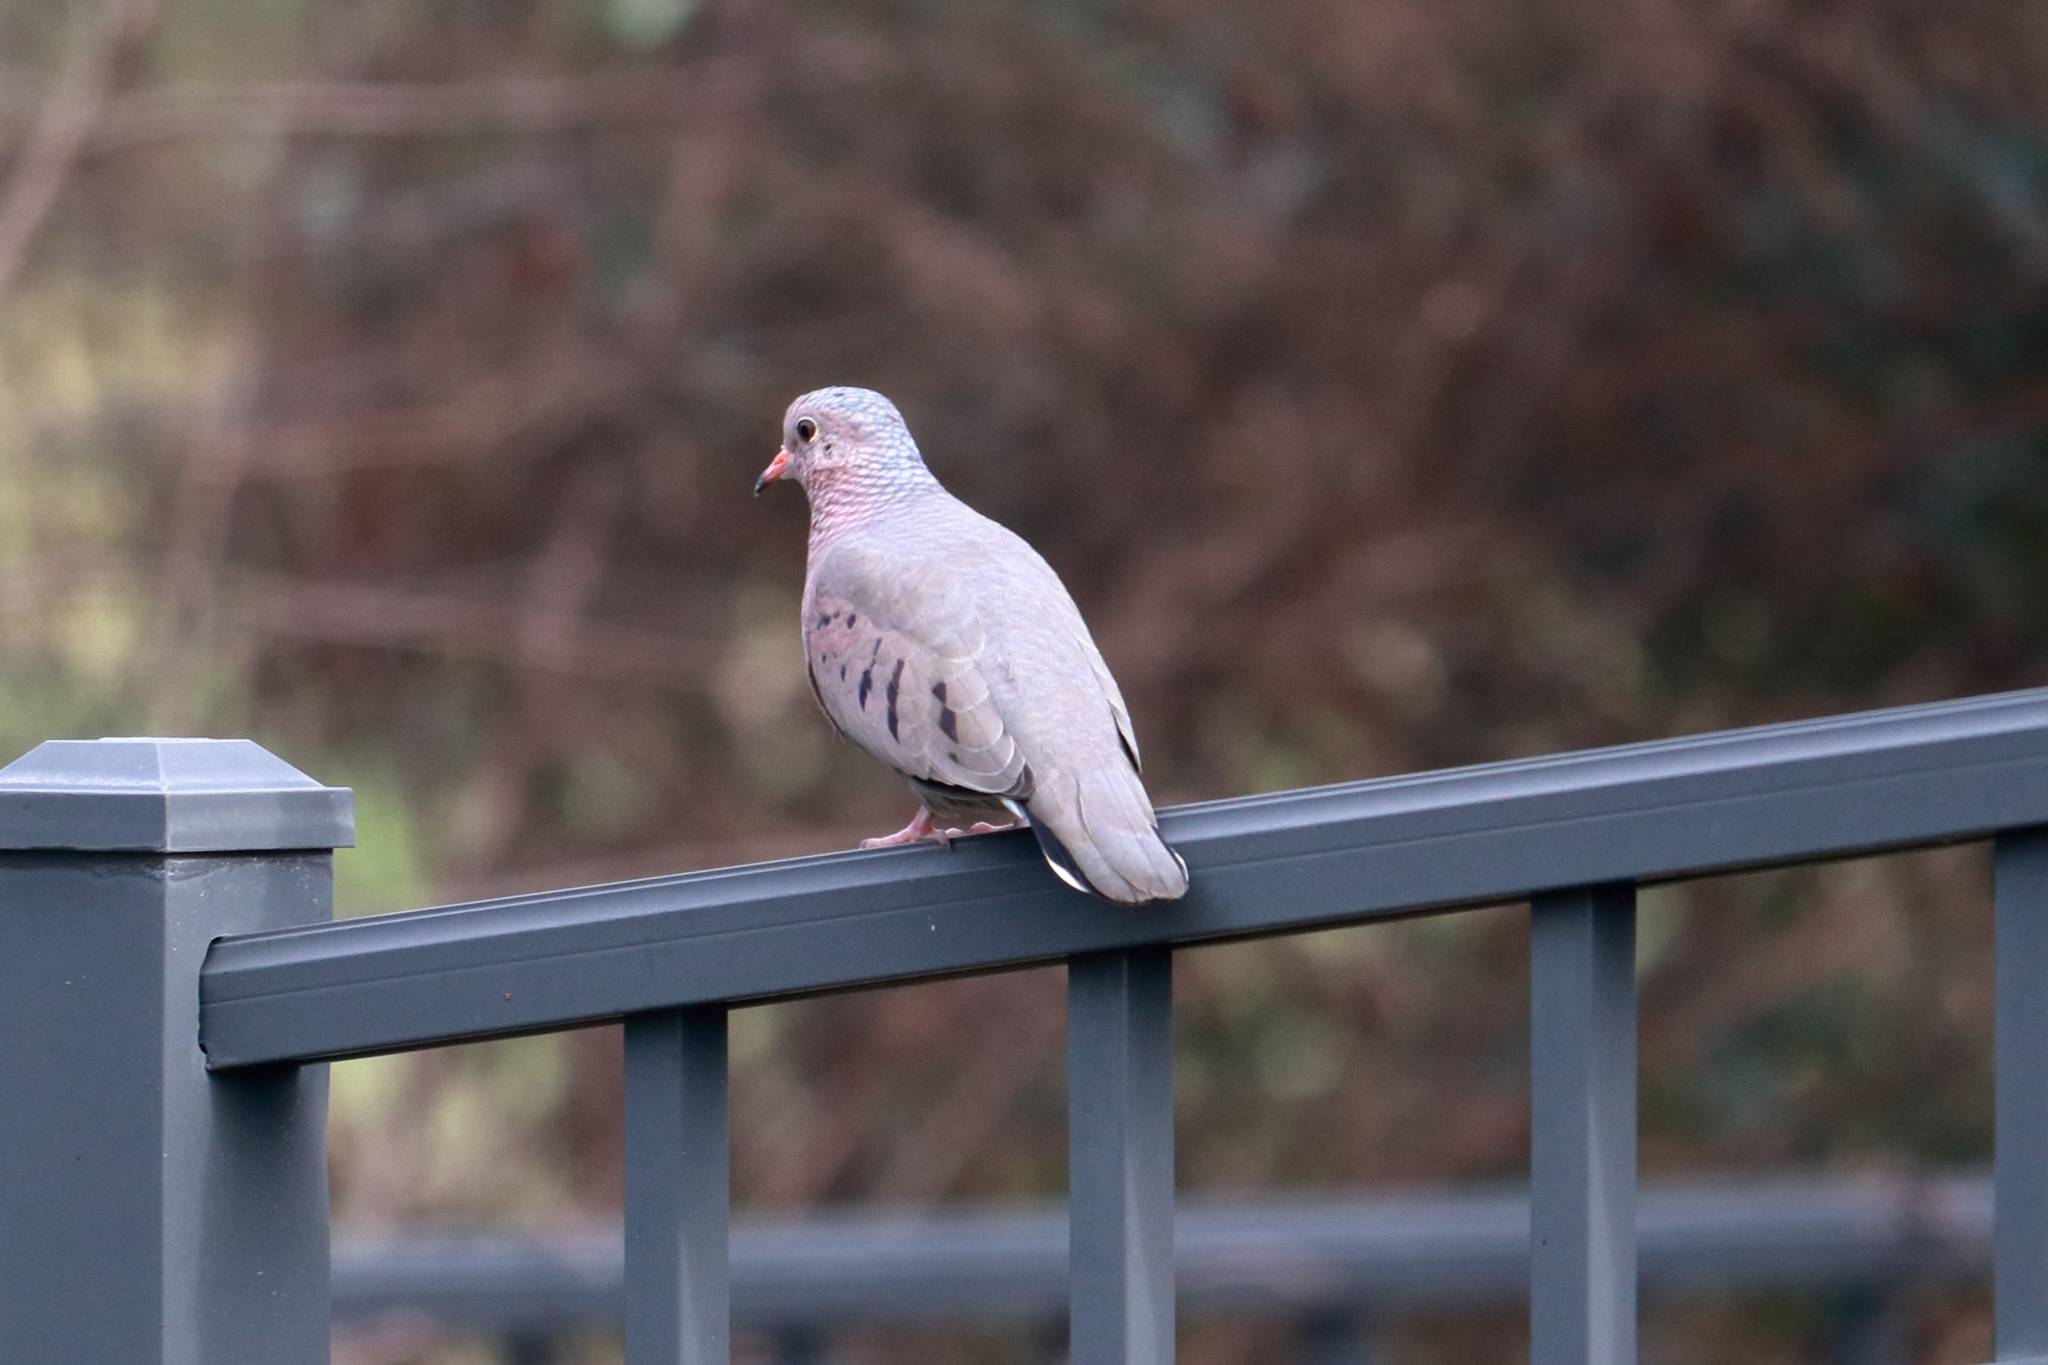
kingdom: Animalia
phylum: Chordata
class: Aves
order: Columbiformes
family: Columbidae
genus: Columbina
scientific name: Columbina passerina
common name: Common ground-dove
